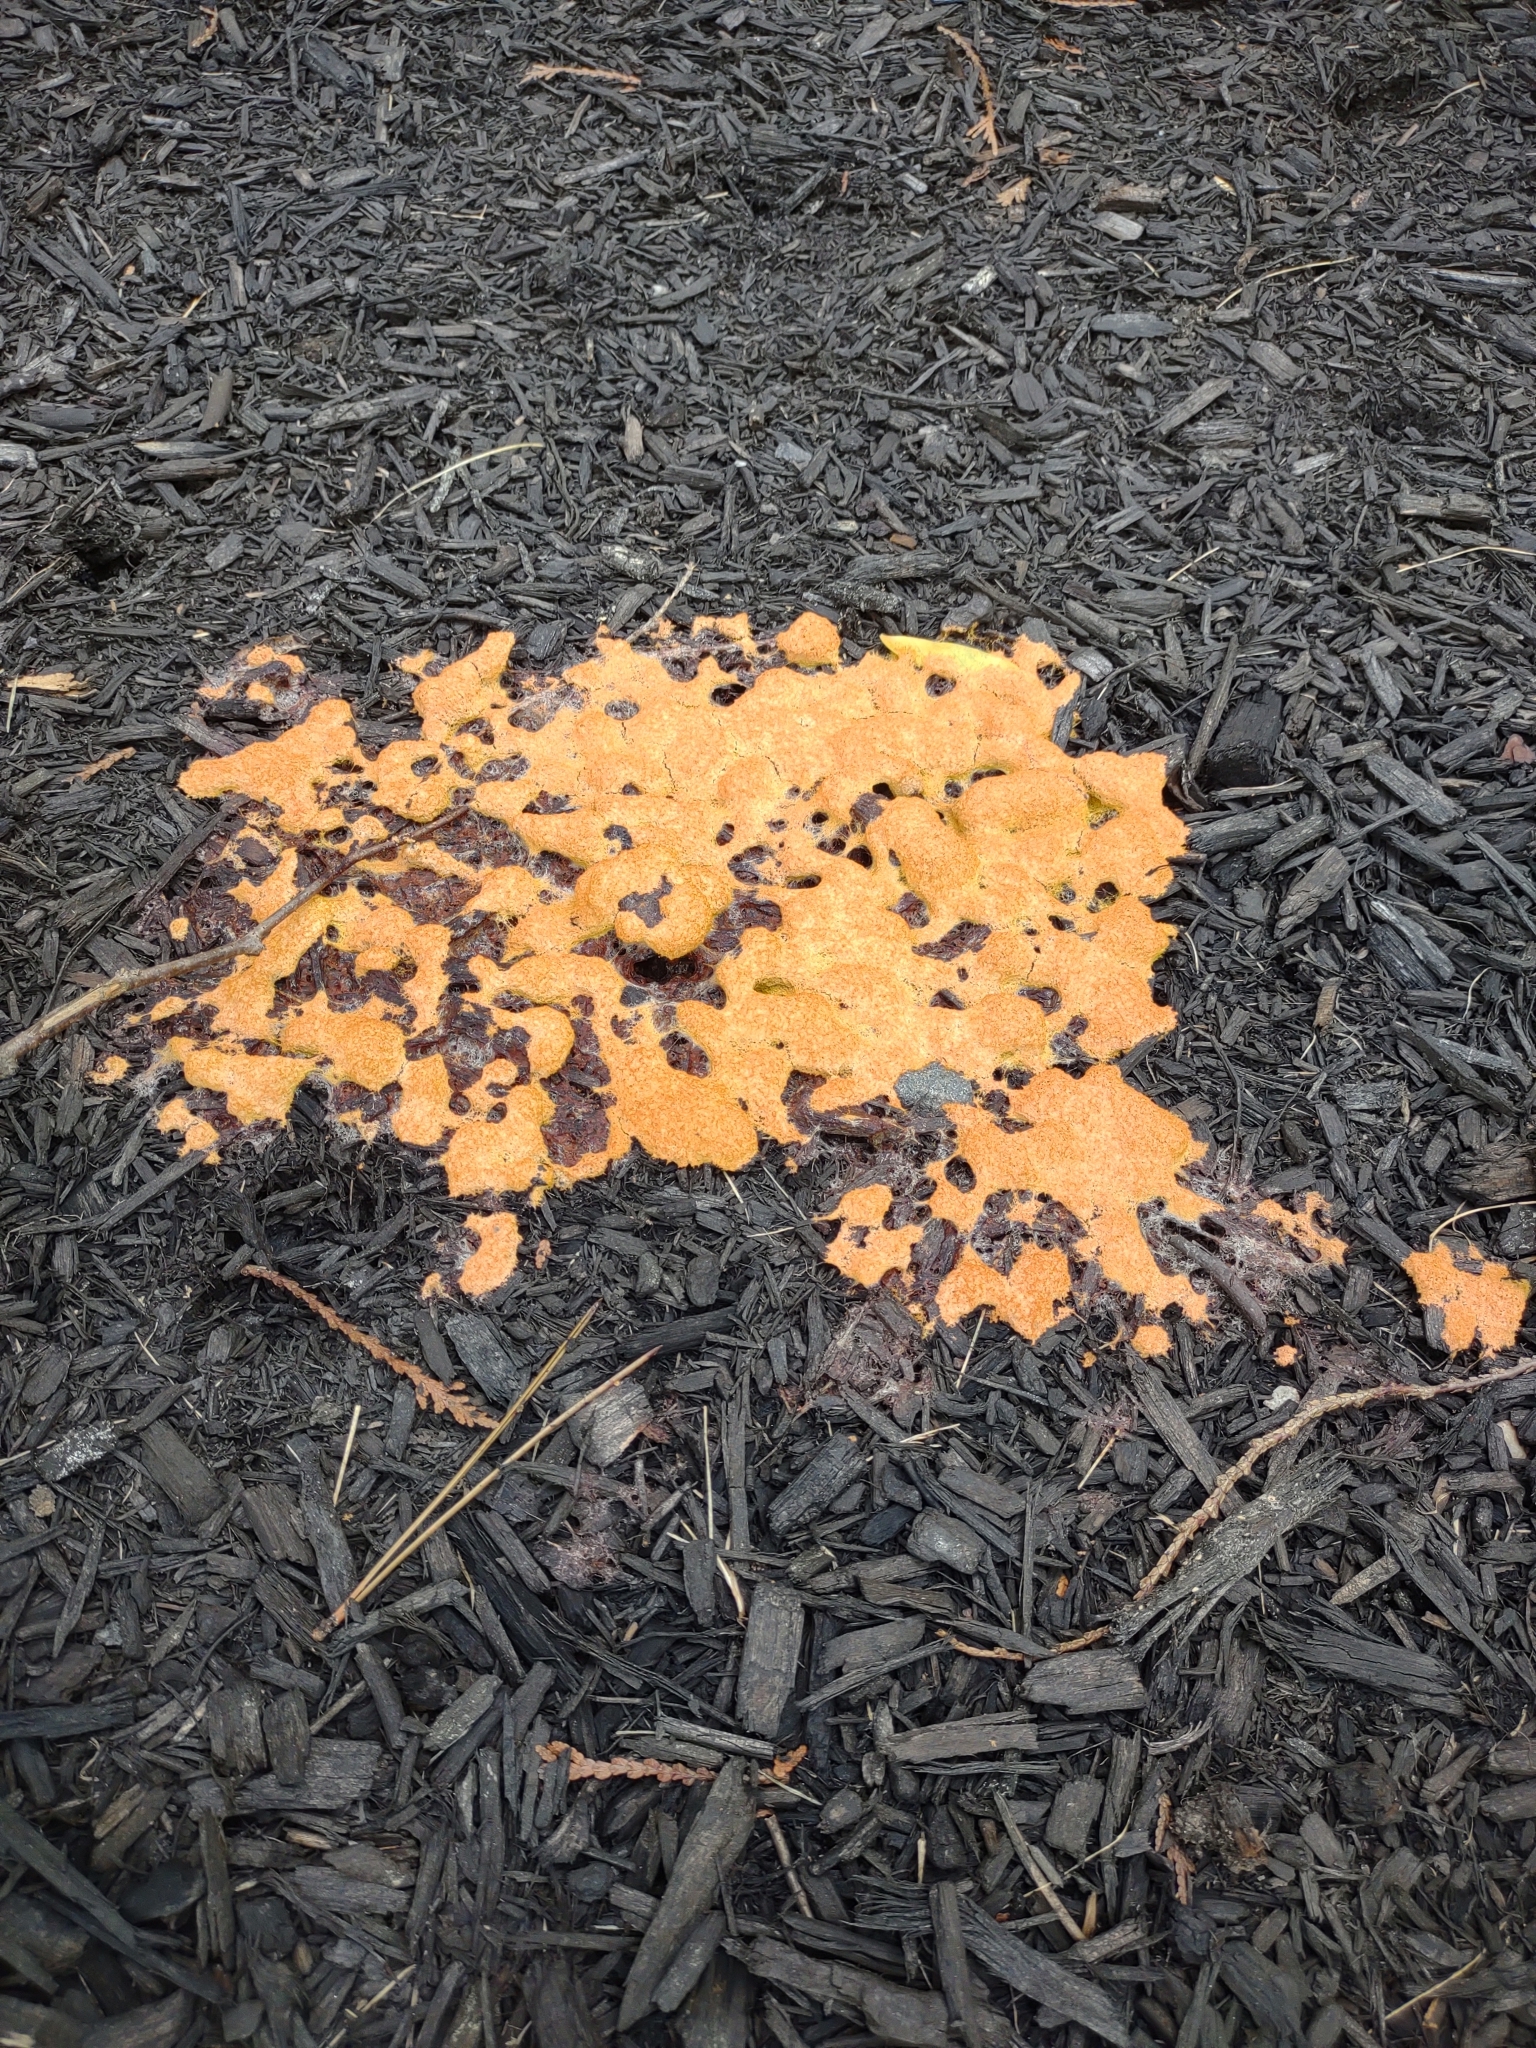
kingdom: Protozoa
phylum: Mycetozoa
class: Myxomycetes
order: Physarales
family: Physaraceae
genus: Fuligo
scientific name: Fuligo septica
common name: Dog vomit slime mold
